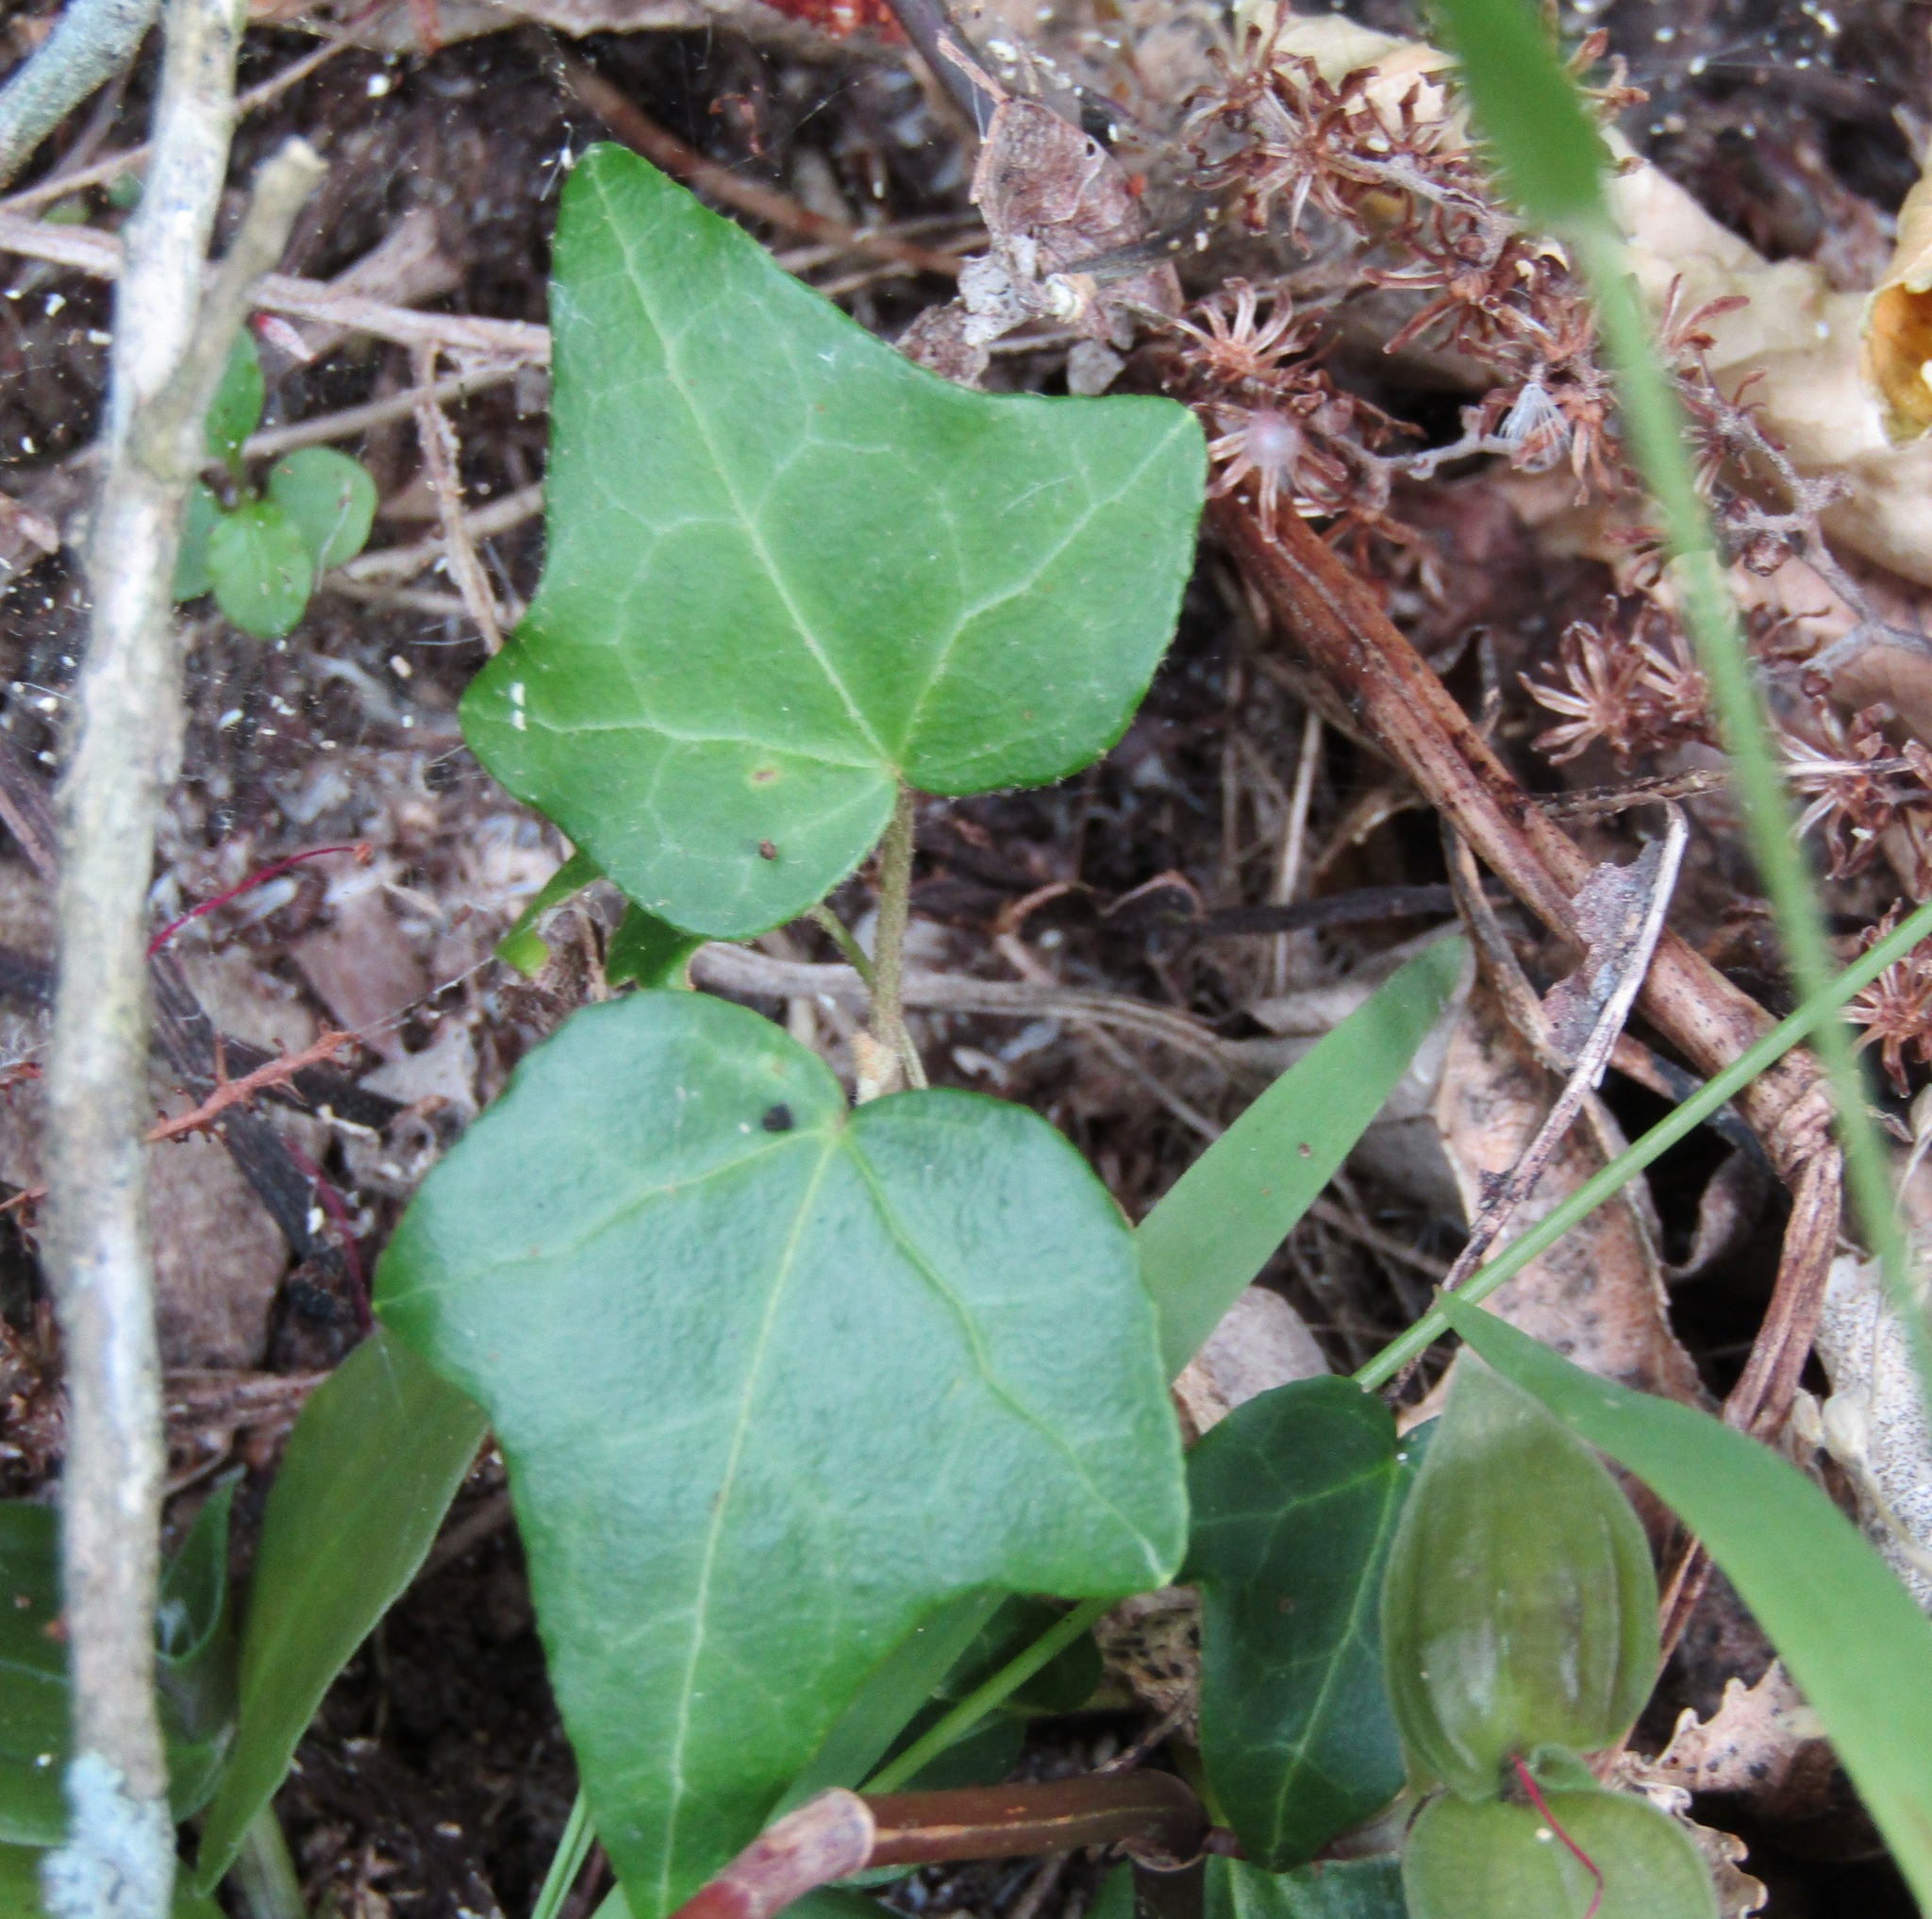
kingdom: Plantae
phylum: Tracheophyta
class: Magnoliopsida
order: Apiales
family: Araliaceae
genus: Hedera
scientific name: Hedera helix
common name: Ivy
